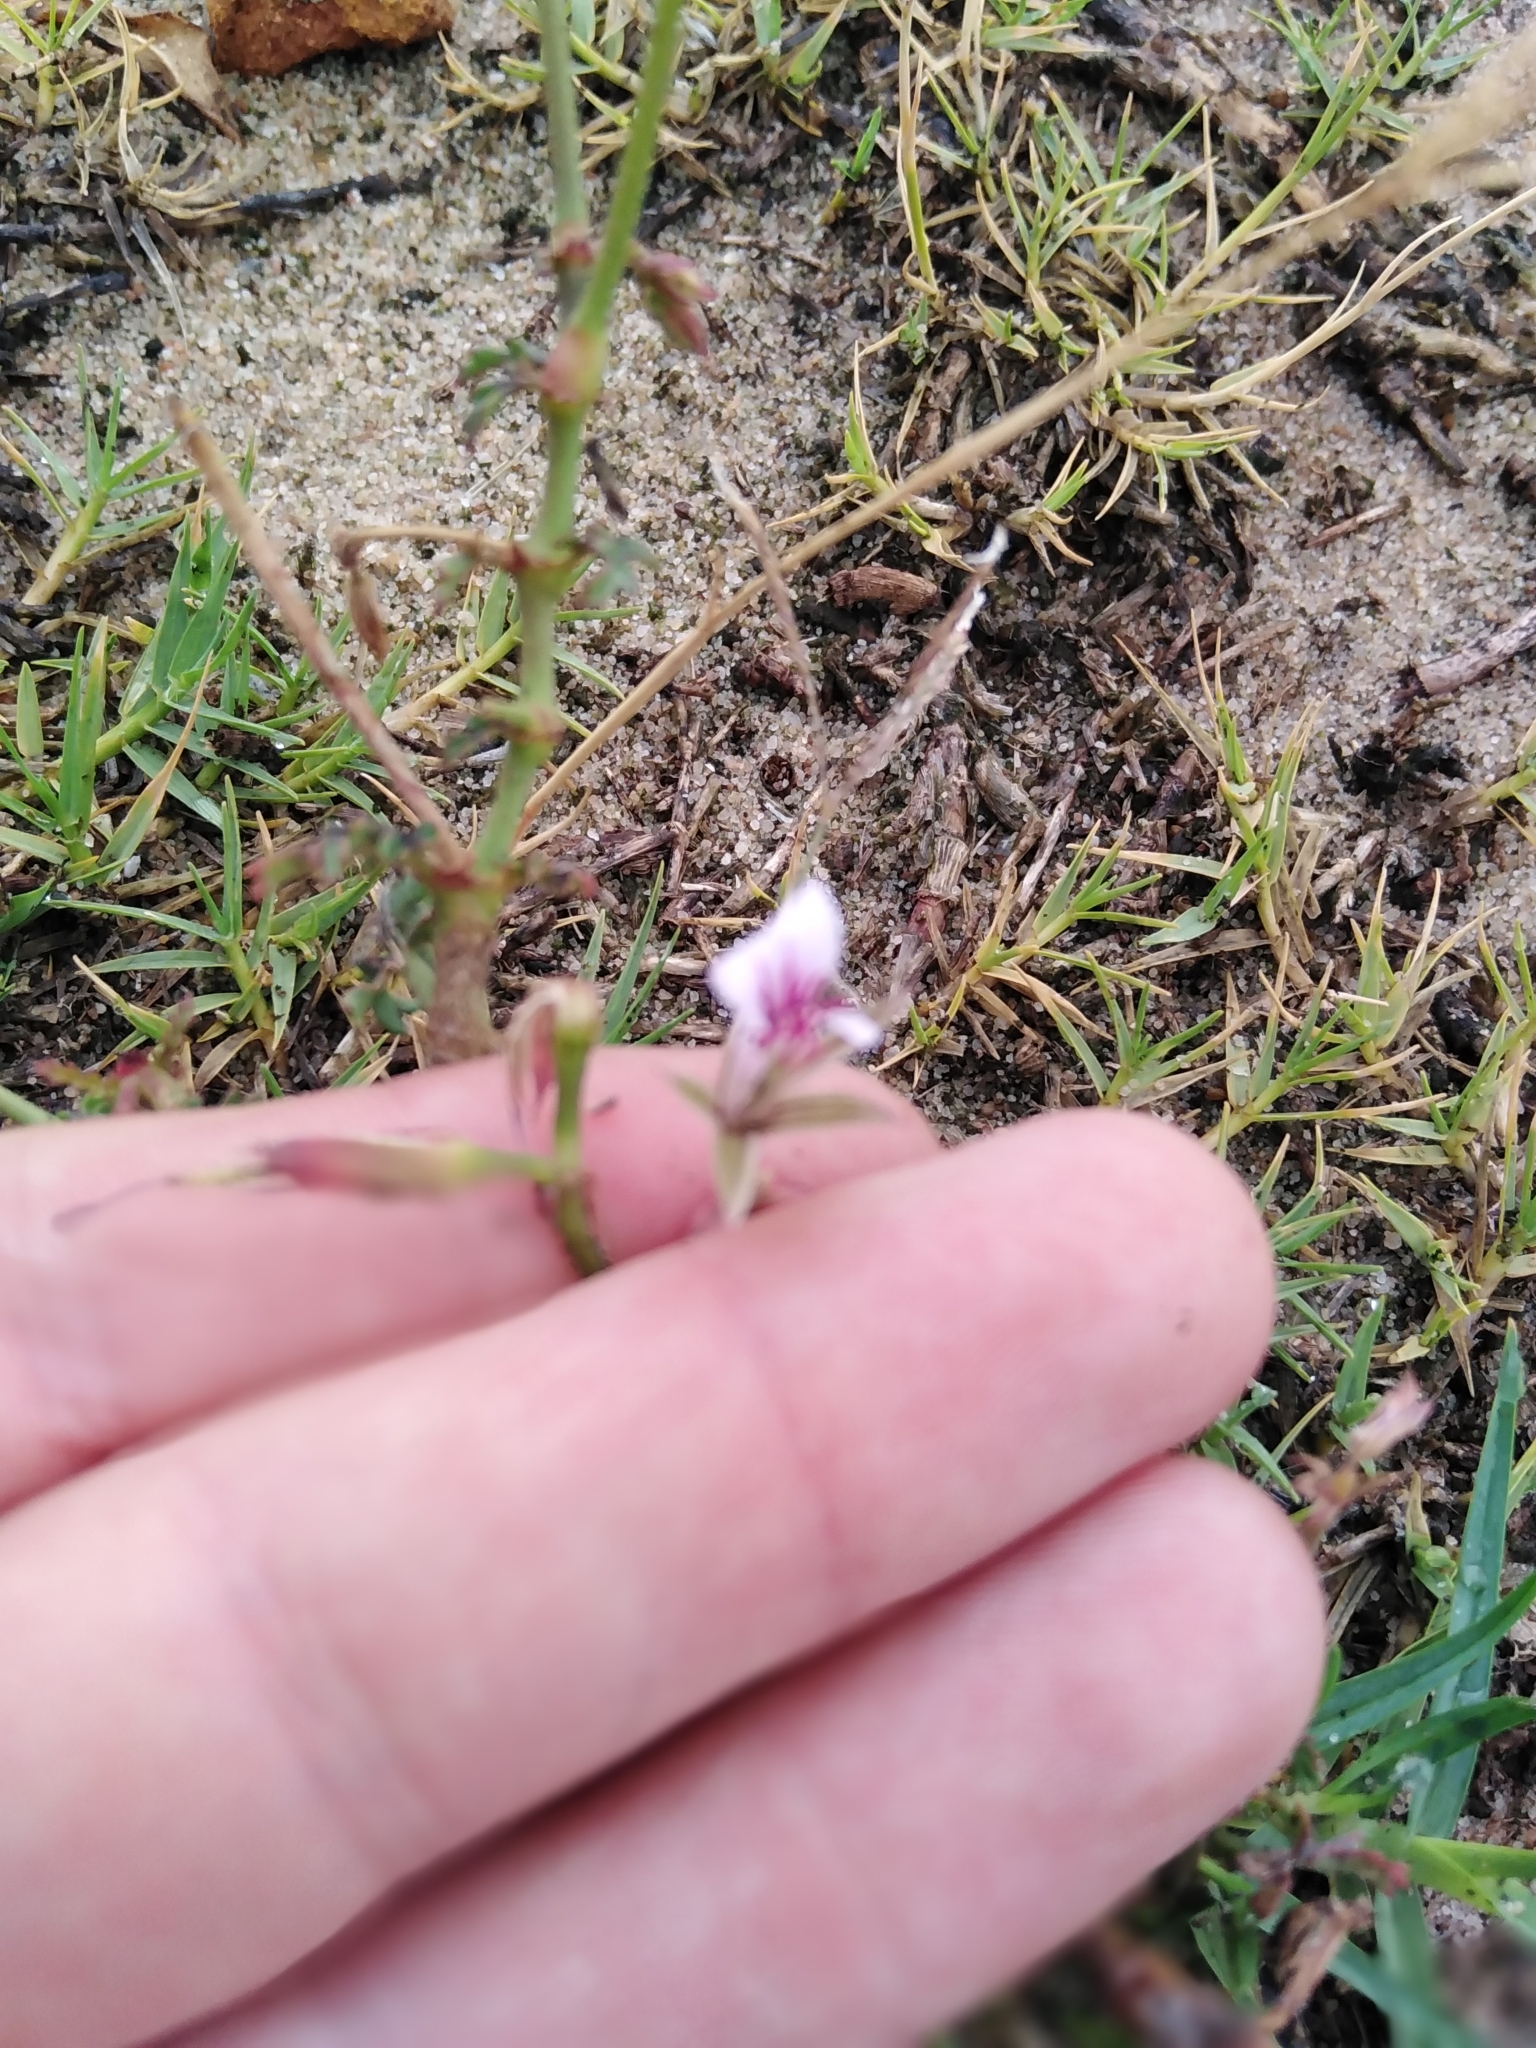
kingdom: Plantae
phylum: Tracheophyta
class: Magnoliopsida
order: Geraniales
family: Geraniaceae
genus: Pelargonium
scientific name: Pelargonium myrrhifolium
